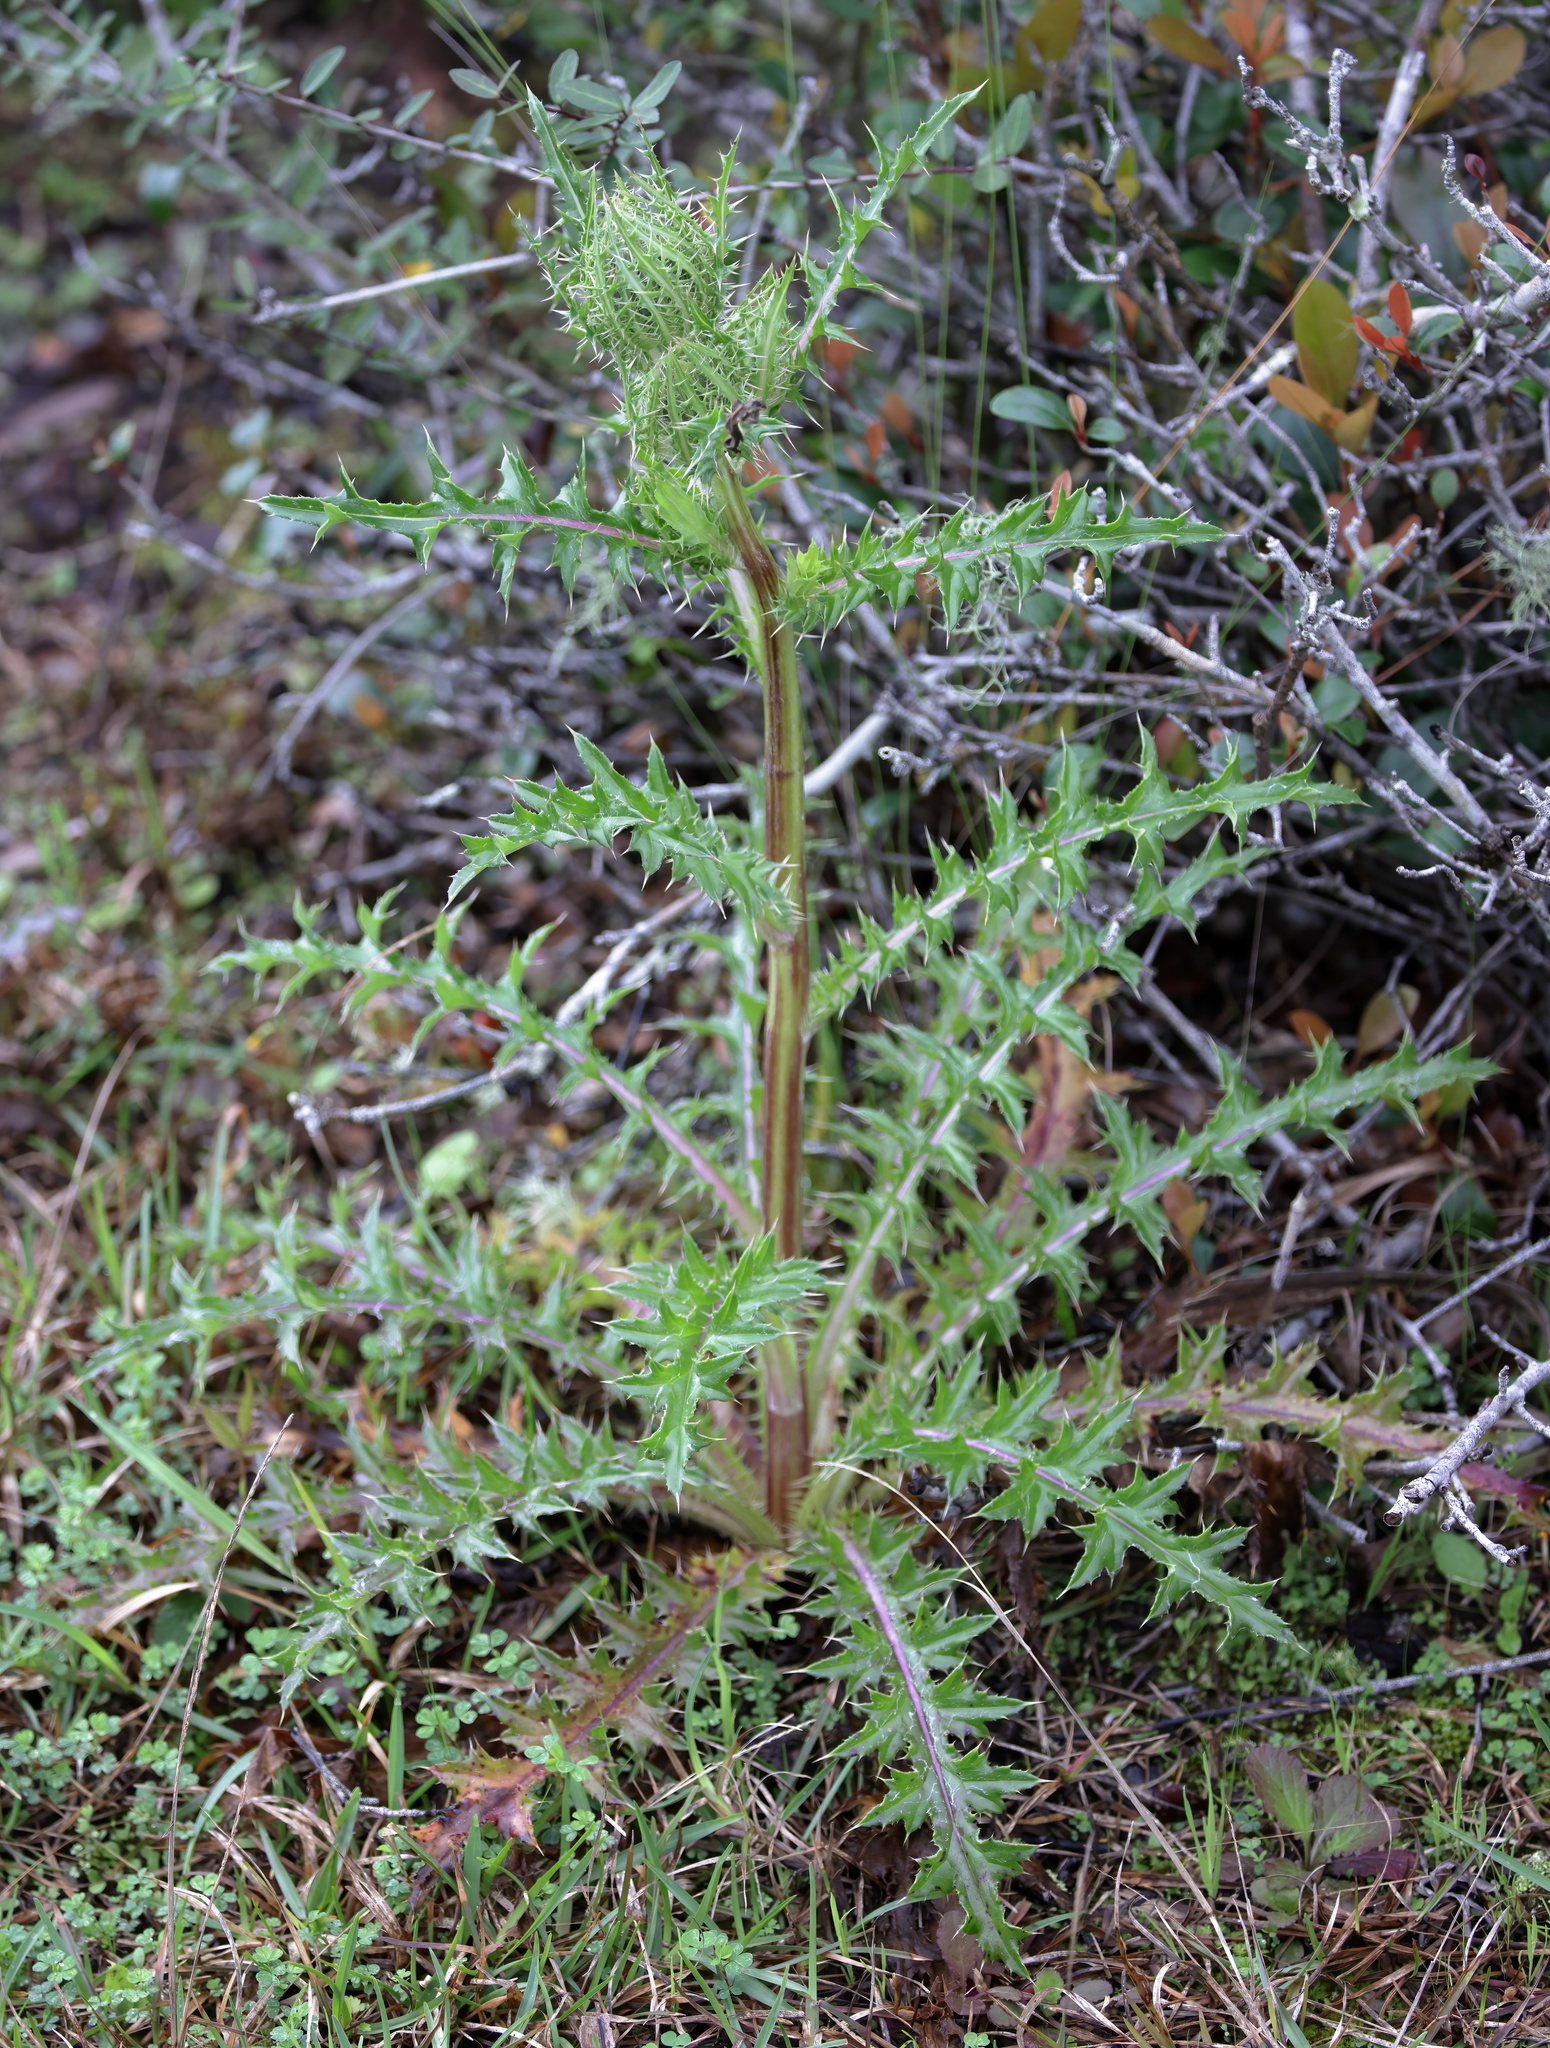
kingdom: Plantae
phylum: Tracheophyta
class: Magnoliopsida
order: Asterales
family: Asteraceae
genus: Cirsium
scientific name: Cirsium horridulum
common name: Bristly thistle
